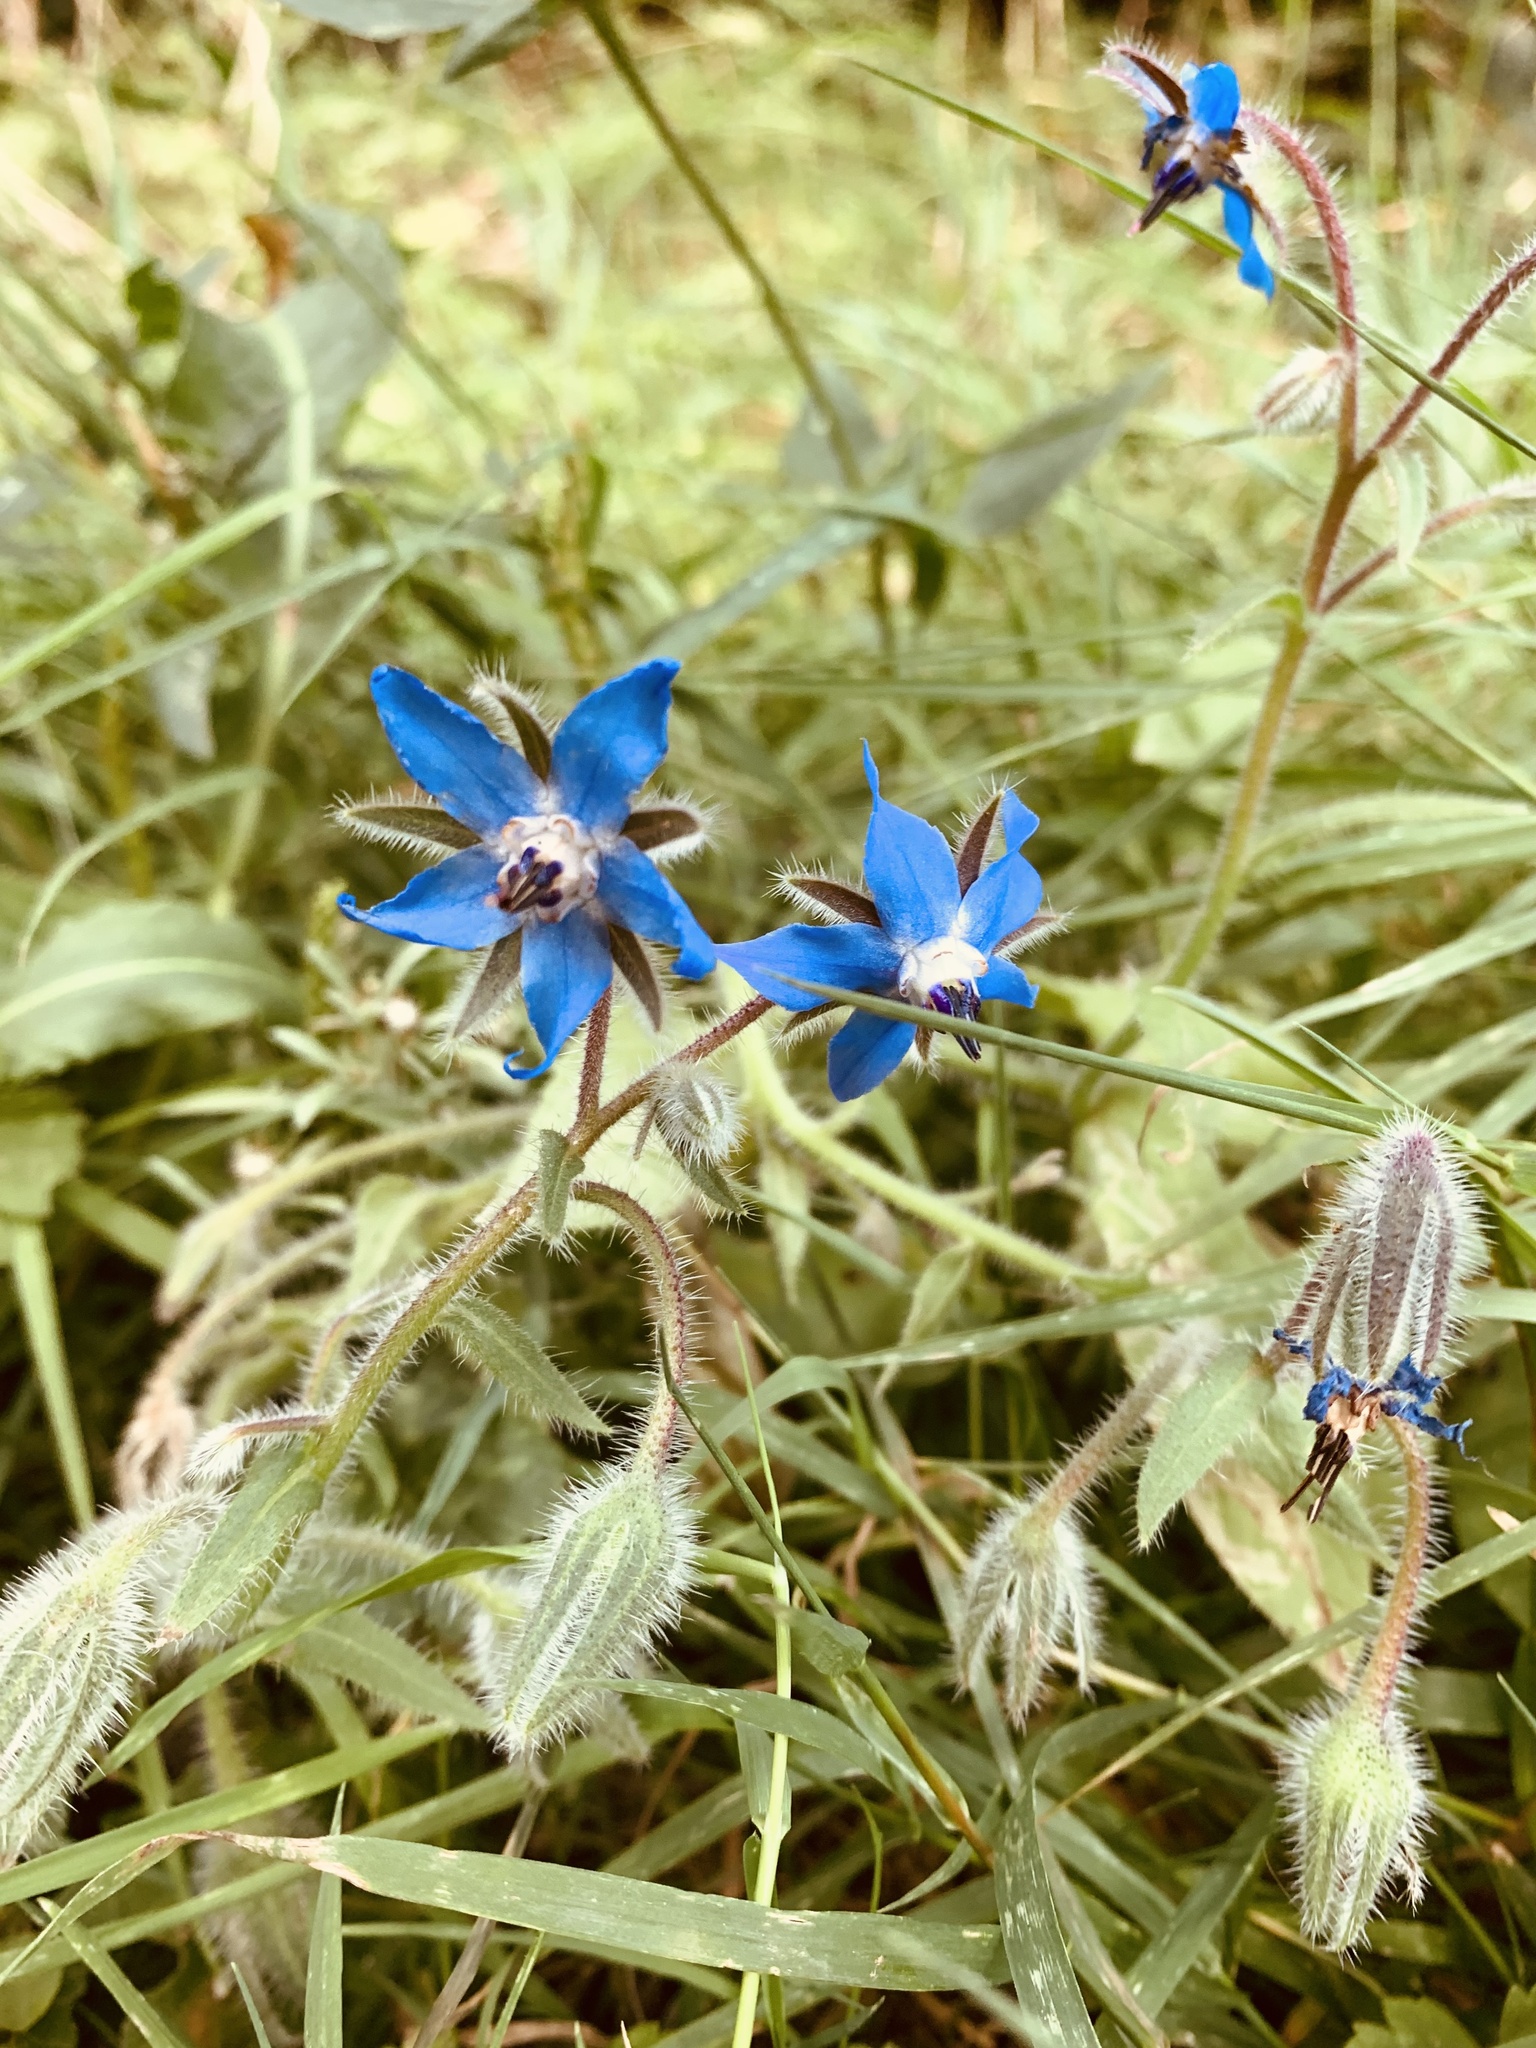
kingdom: Plantae
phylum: Tracheophyta
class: Magnoliopsida
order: Boraginales
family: Boraginaceae
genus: Borago
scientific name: Borago officinalis
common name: Borage
